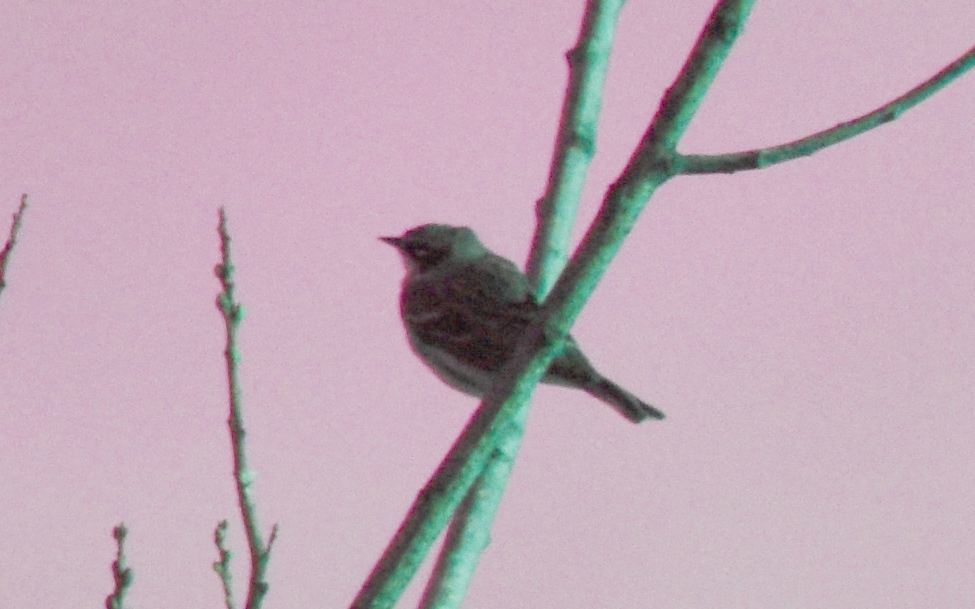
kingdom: Animalia
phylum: Chordata
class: Aves
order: Passeriformes
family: Parulidae
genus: Setophaga
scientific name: Setophaga coronata
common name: Myrtle warbler
